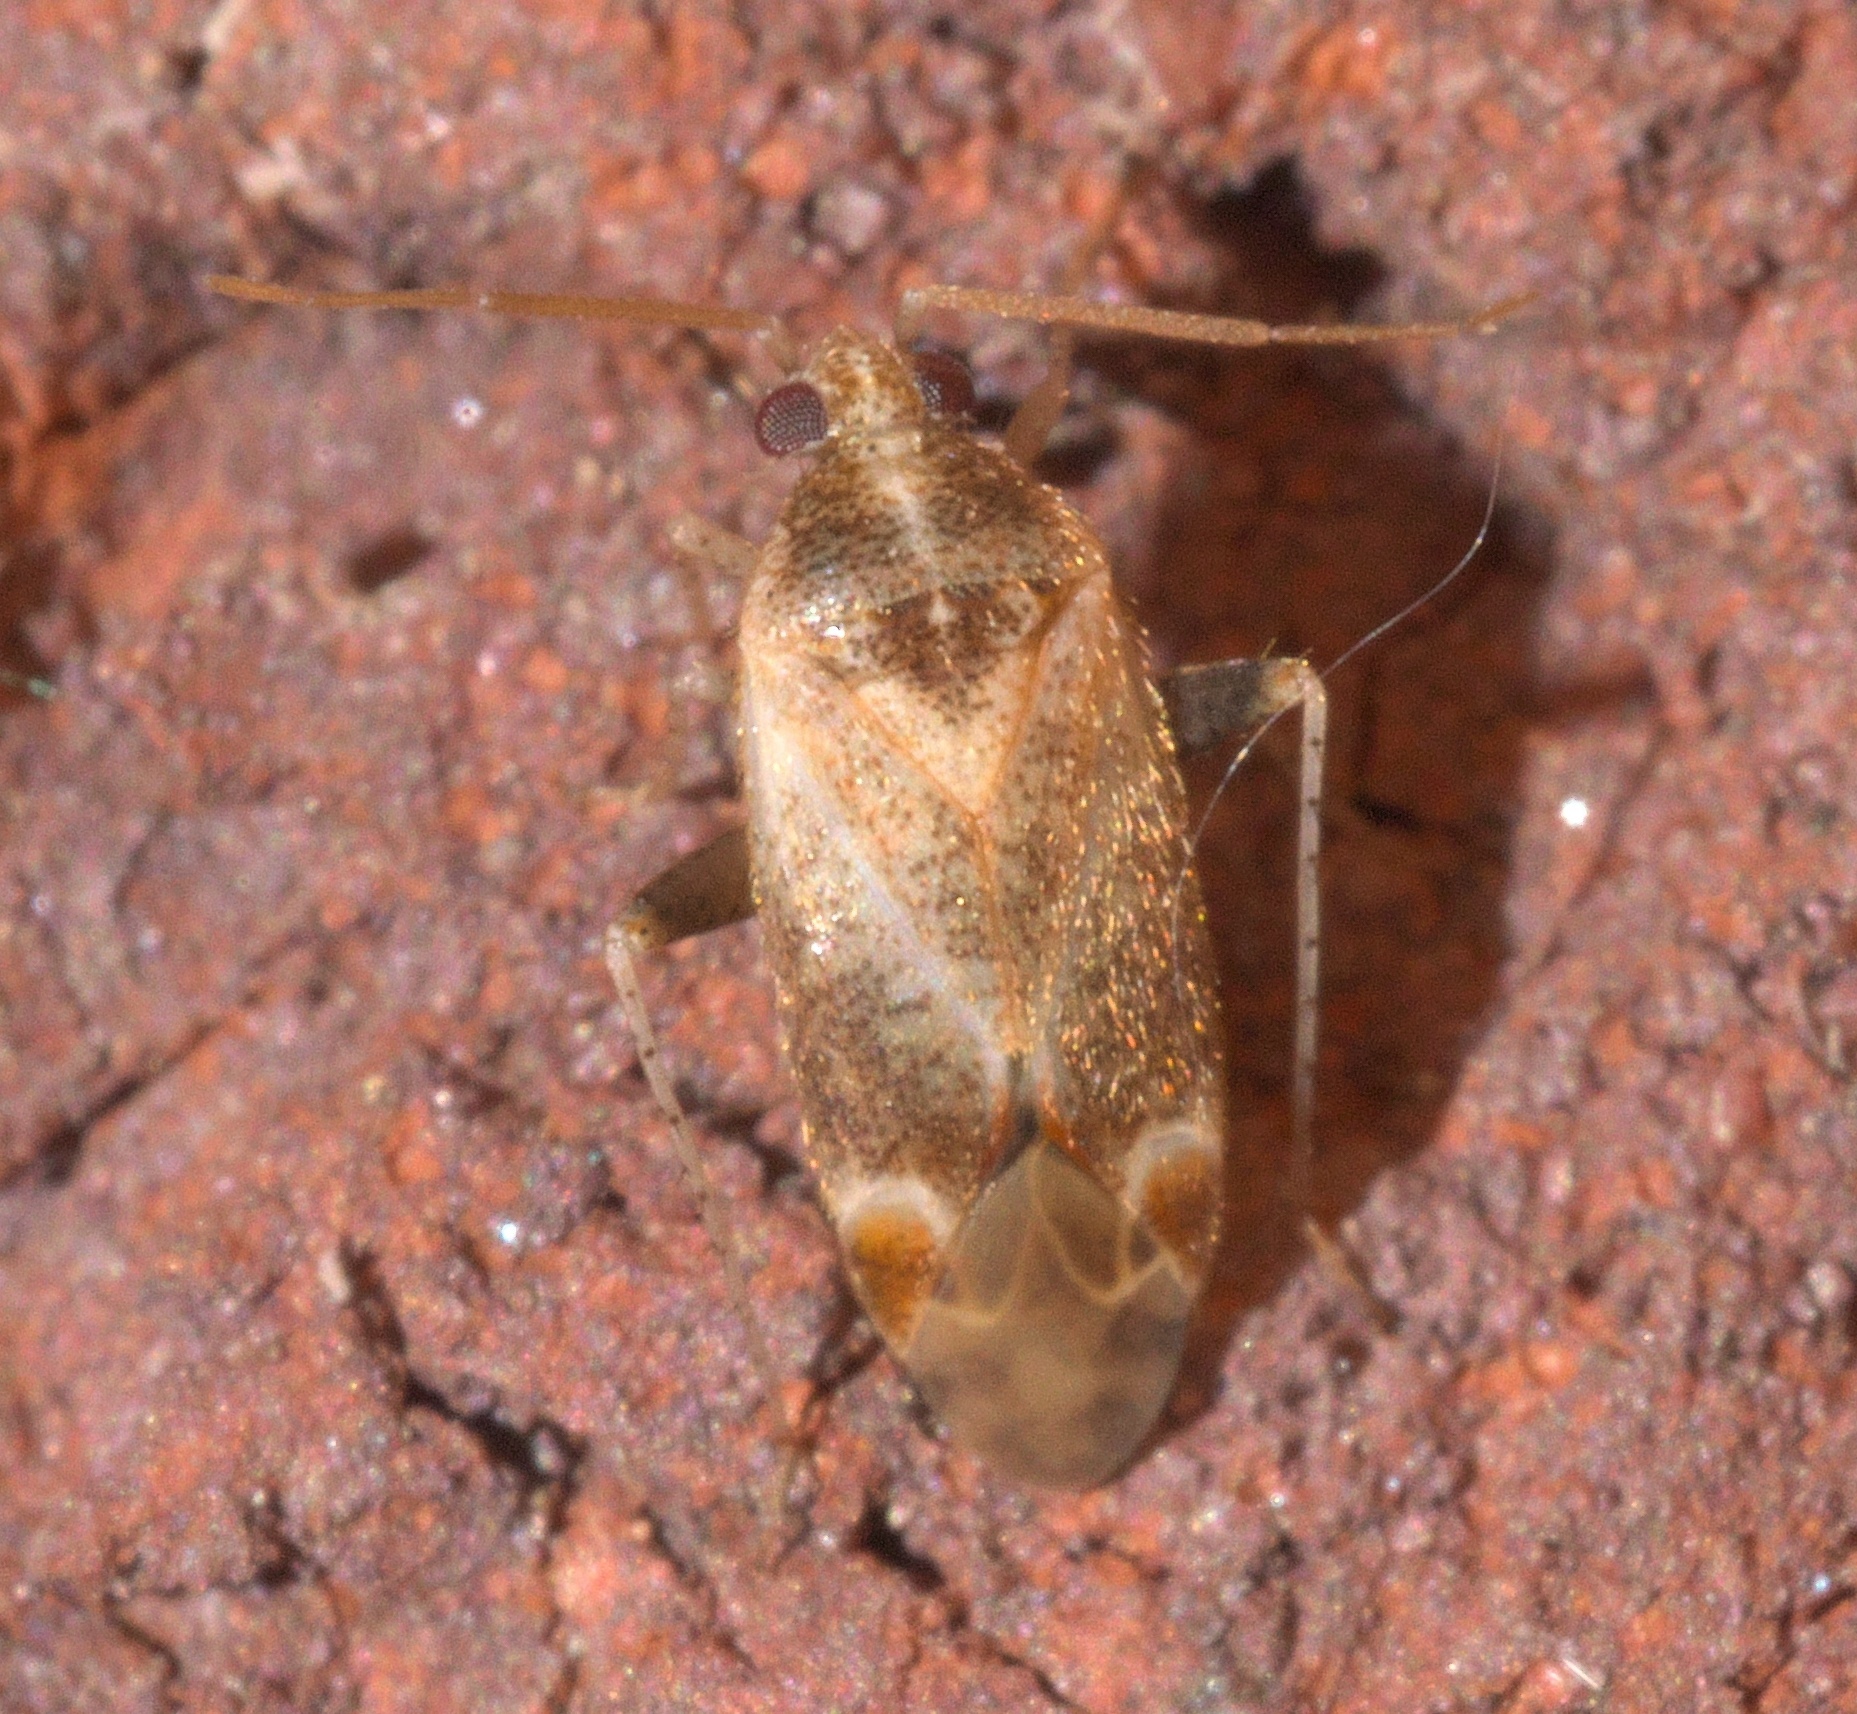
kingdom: Animalia
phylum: Arthropoda
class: Insecta
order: Hemiptera
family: Miridae
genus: Hamatophylus
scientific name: Hamatophylus guttulosus
